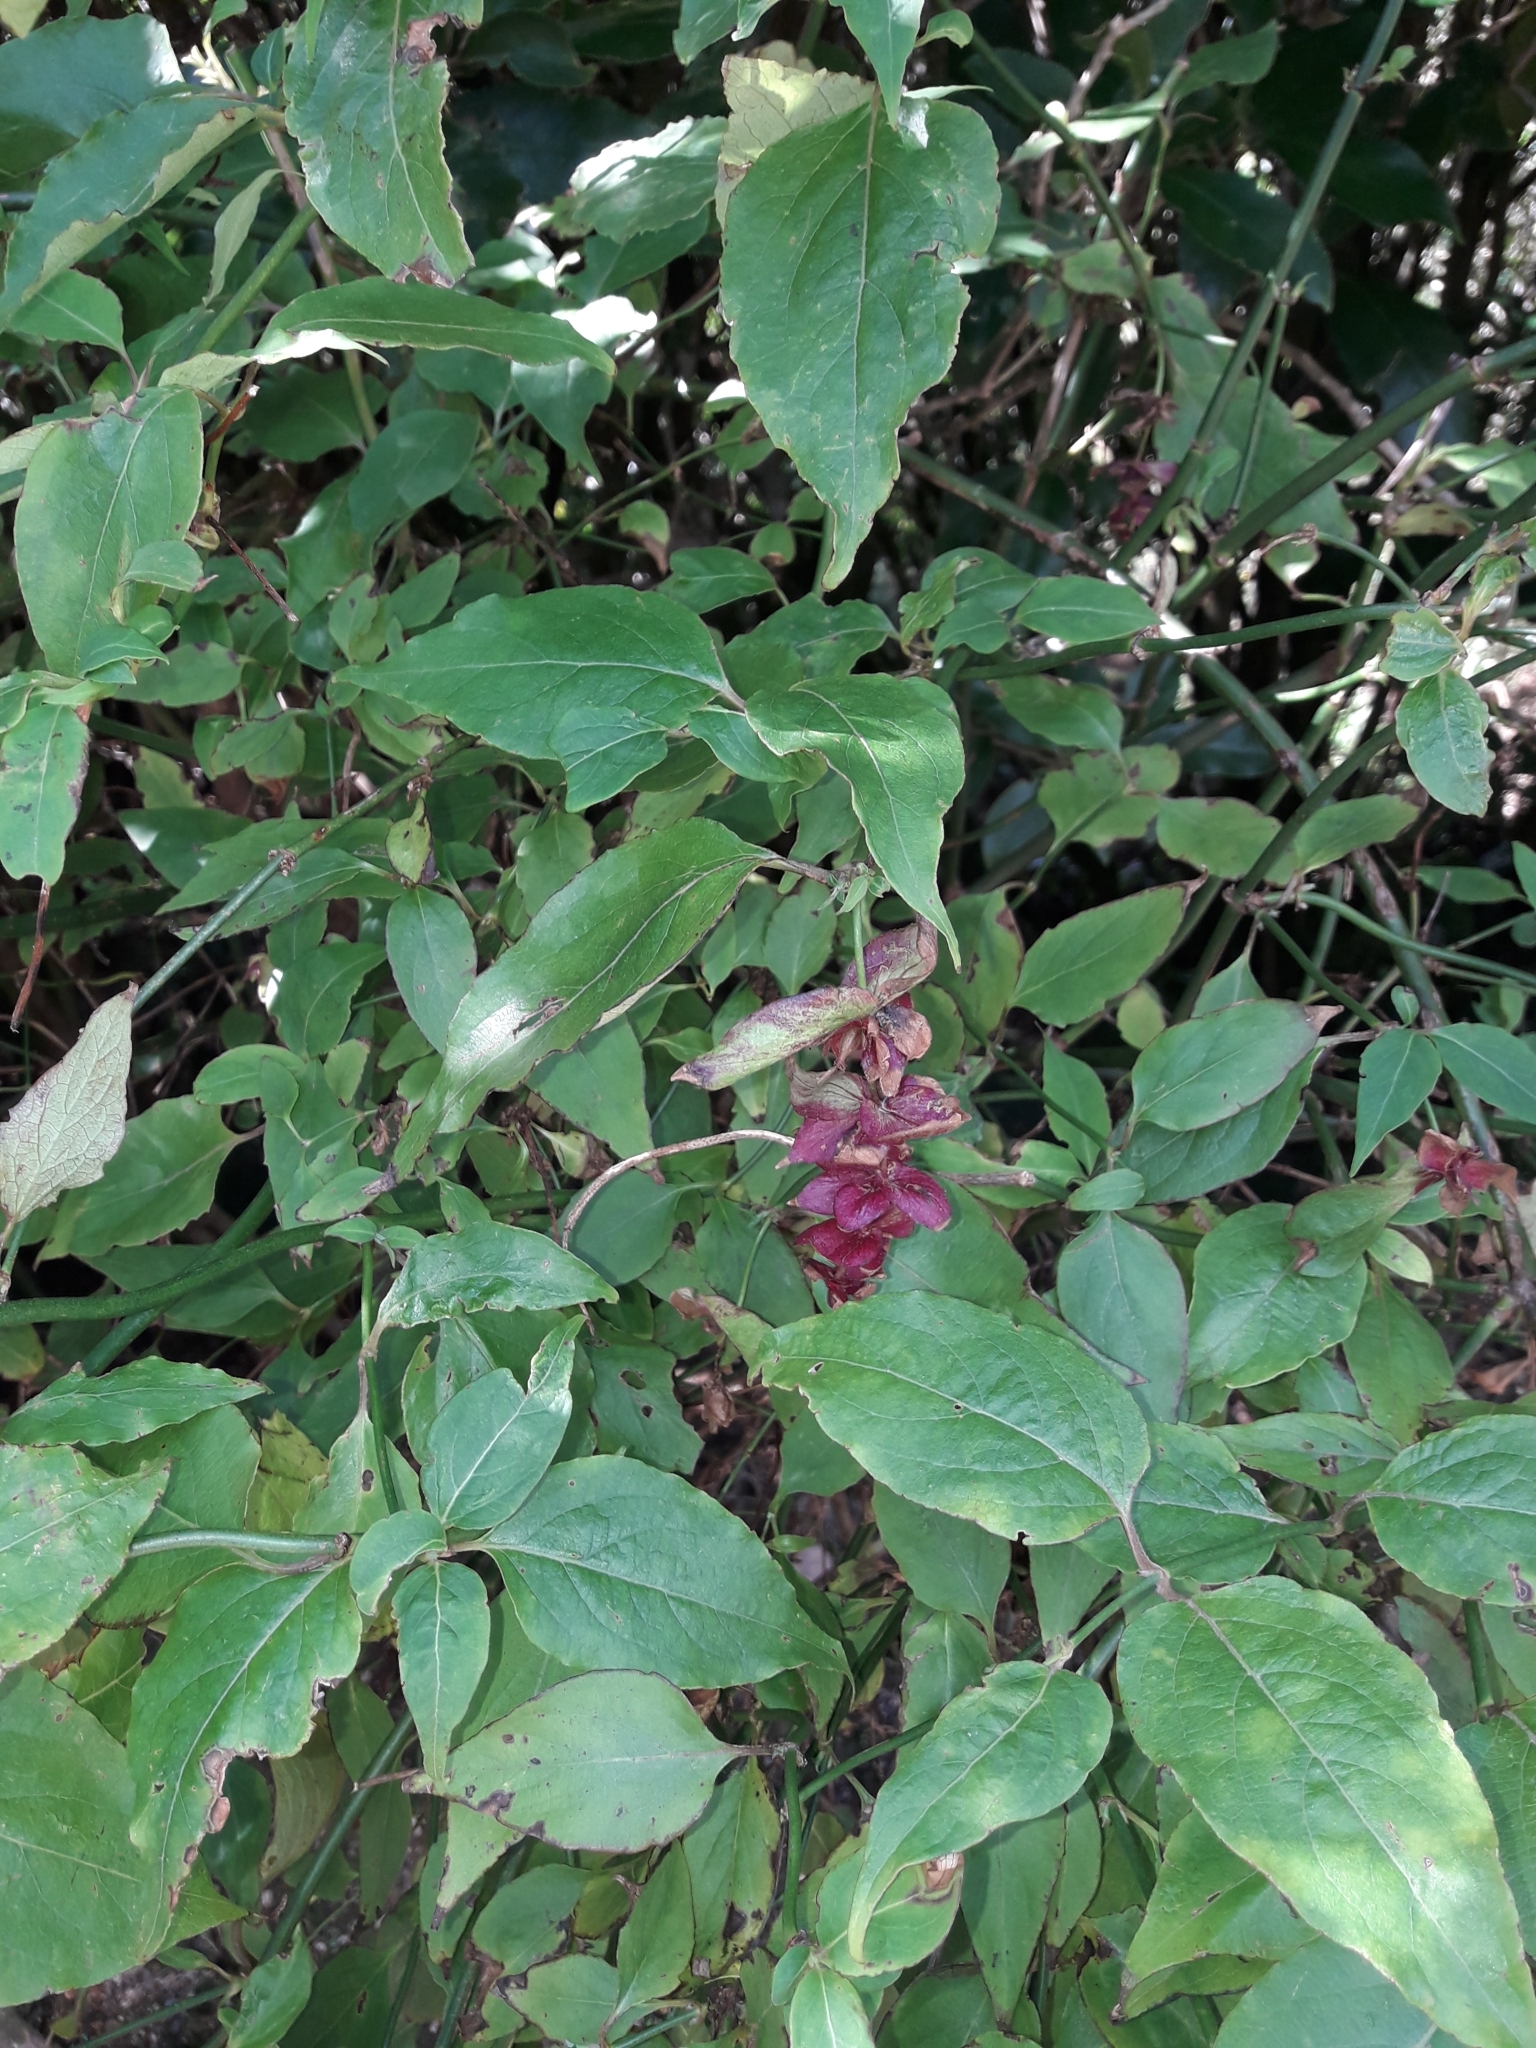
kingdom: Plantae
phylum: Tracheophyta
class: Magnoliopsida
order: Dipsacales
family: Caprifoliaceae
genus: Leycesteria
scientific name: Leycesteria formosa
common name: Himalayan honeysuckle
